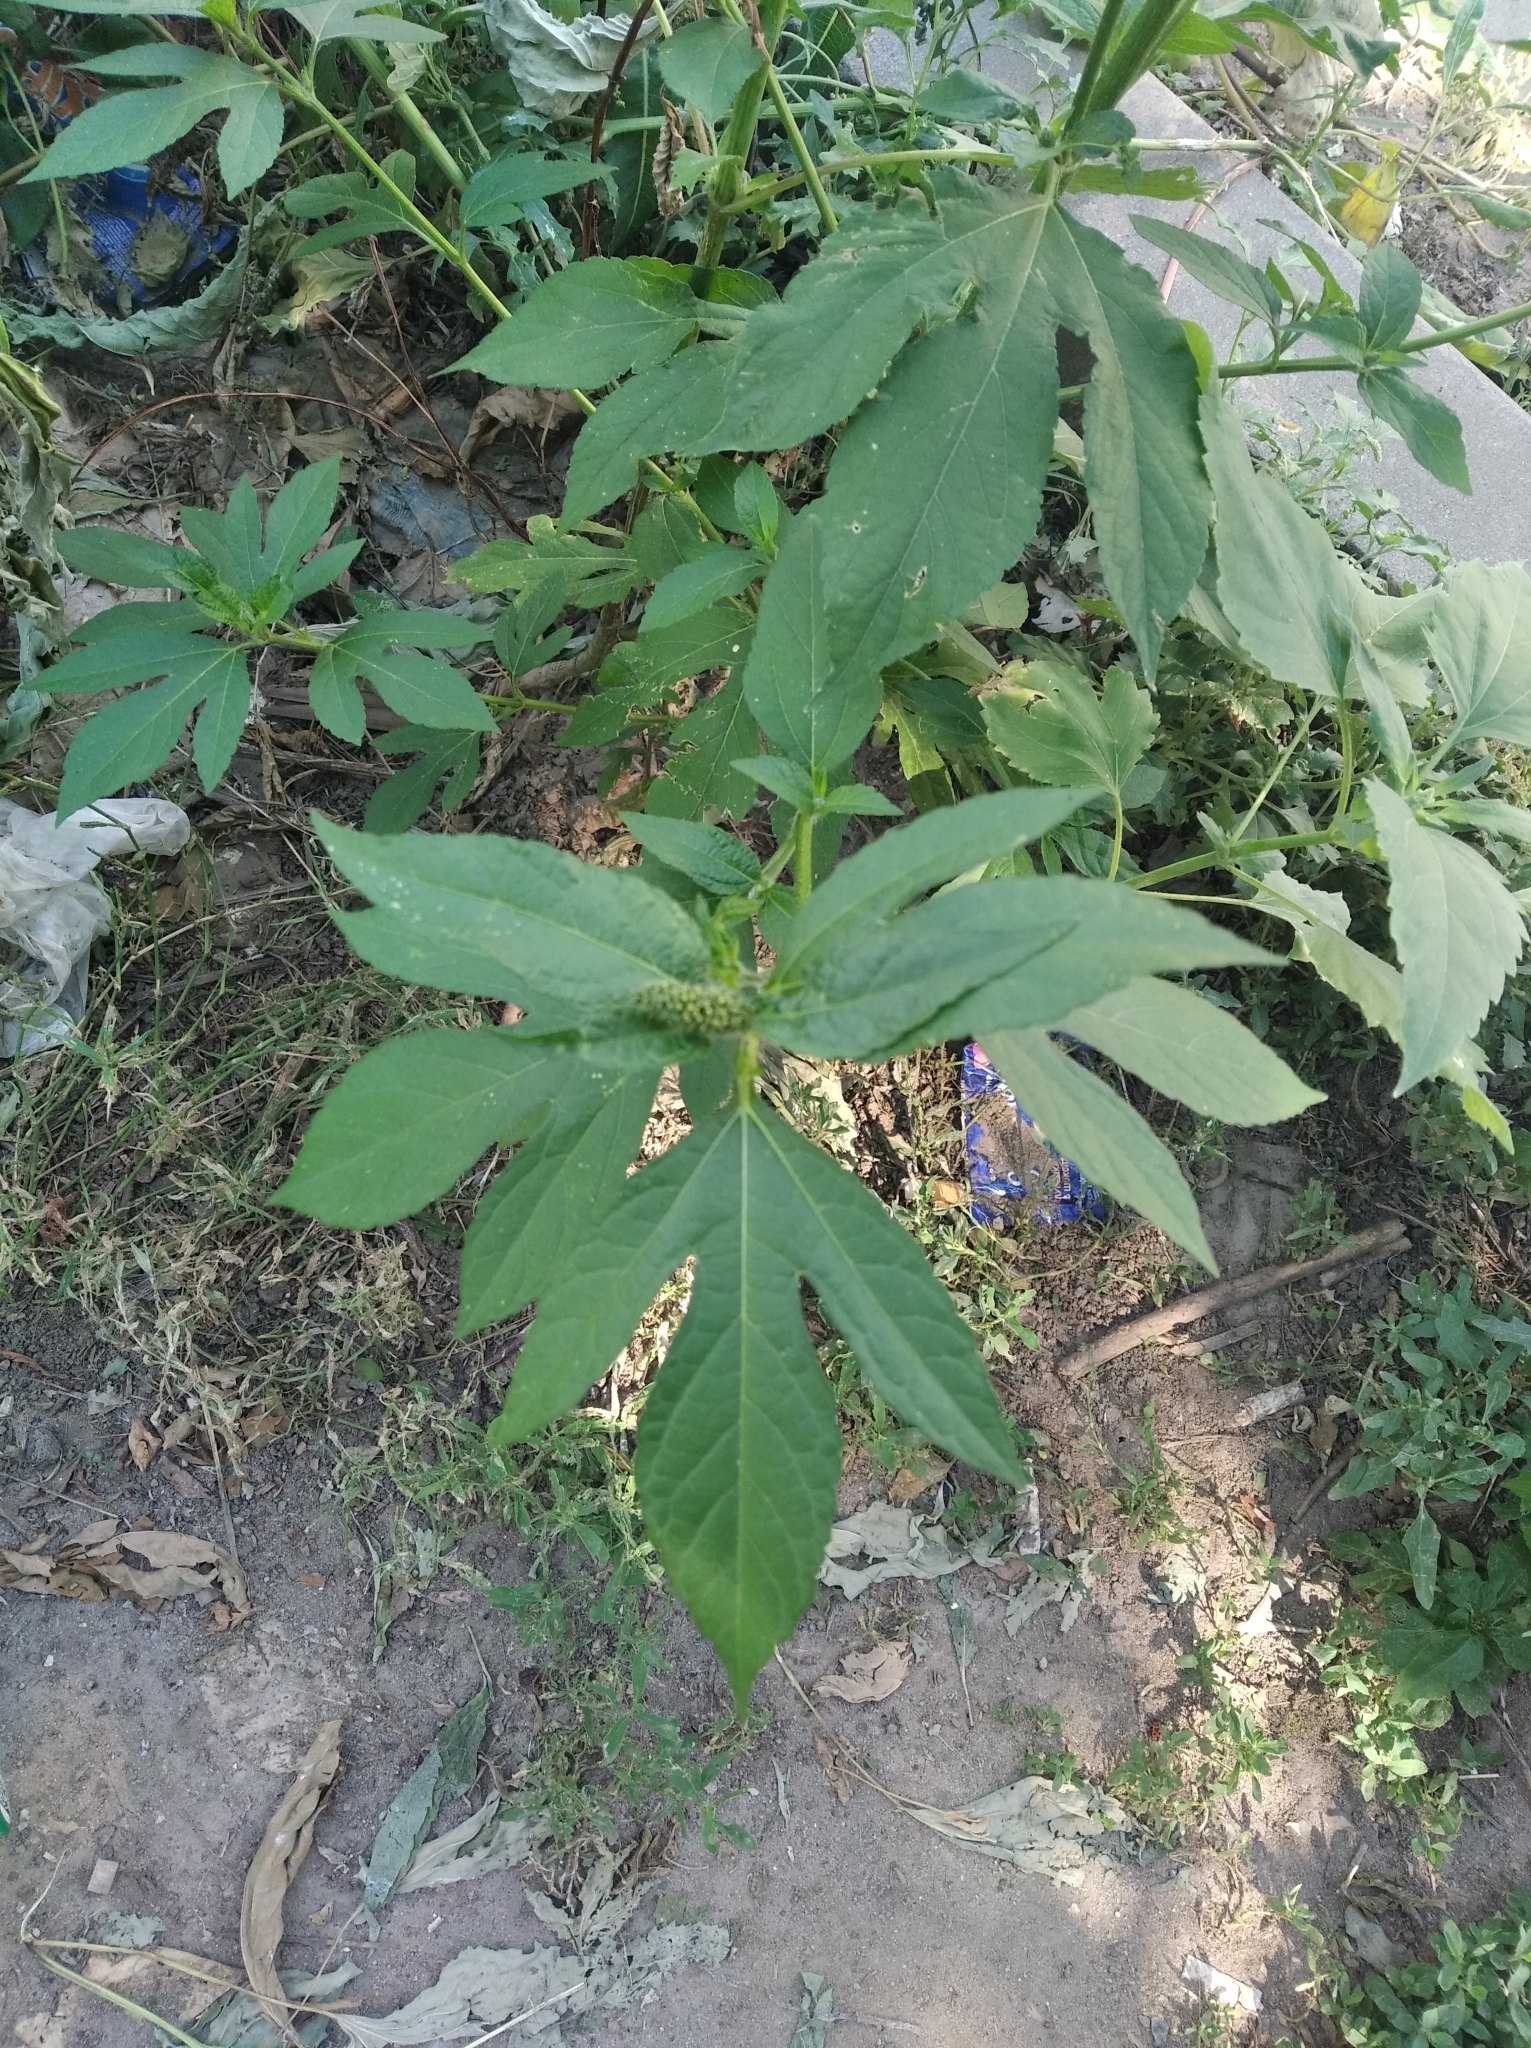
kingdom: Plantae
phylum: Tracheophyta
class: Magnoliopsida
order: Asterales
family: Asteraceae
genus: Ambrosia
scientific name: Ambrosia trifida
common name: Giant ragweed
